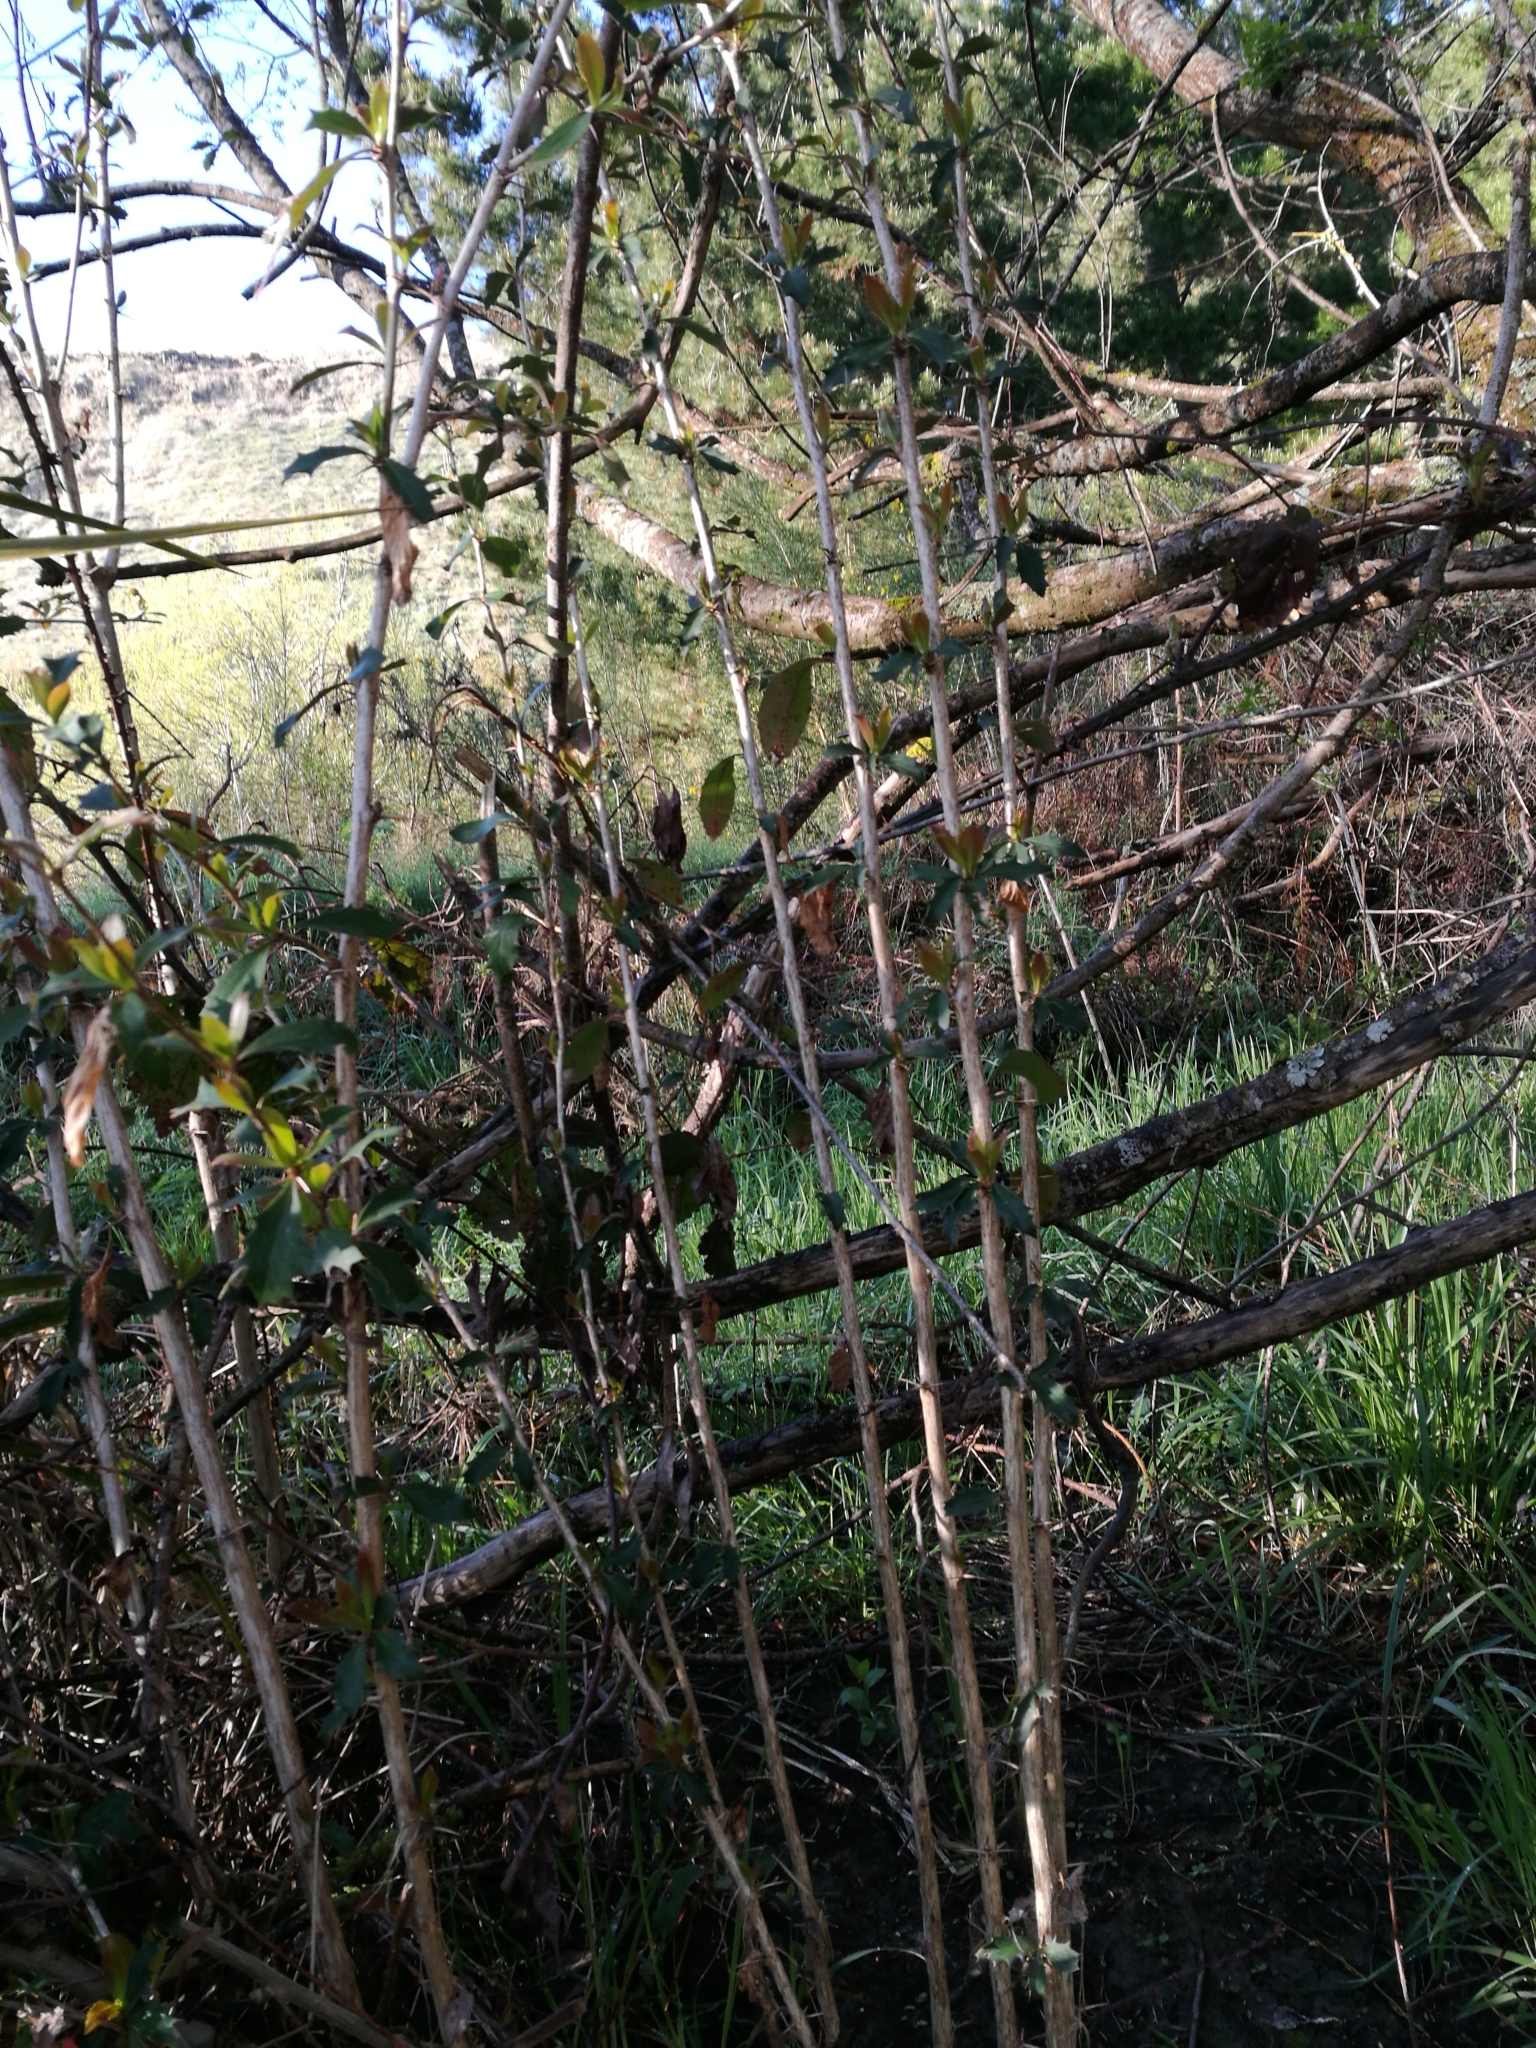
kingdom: Plantae
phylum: Tracheophyta
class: Magnoliopsida
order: Ranunculales
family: Berberidaceae
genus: Berberis
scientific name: Berberis glaucocarpa
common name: Great barberry
